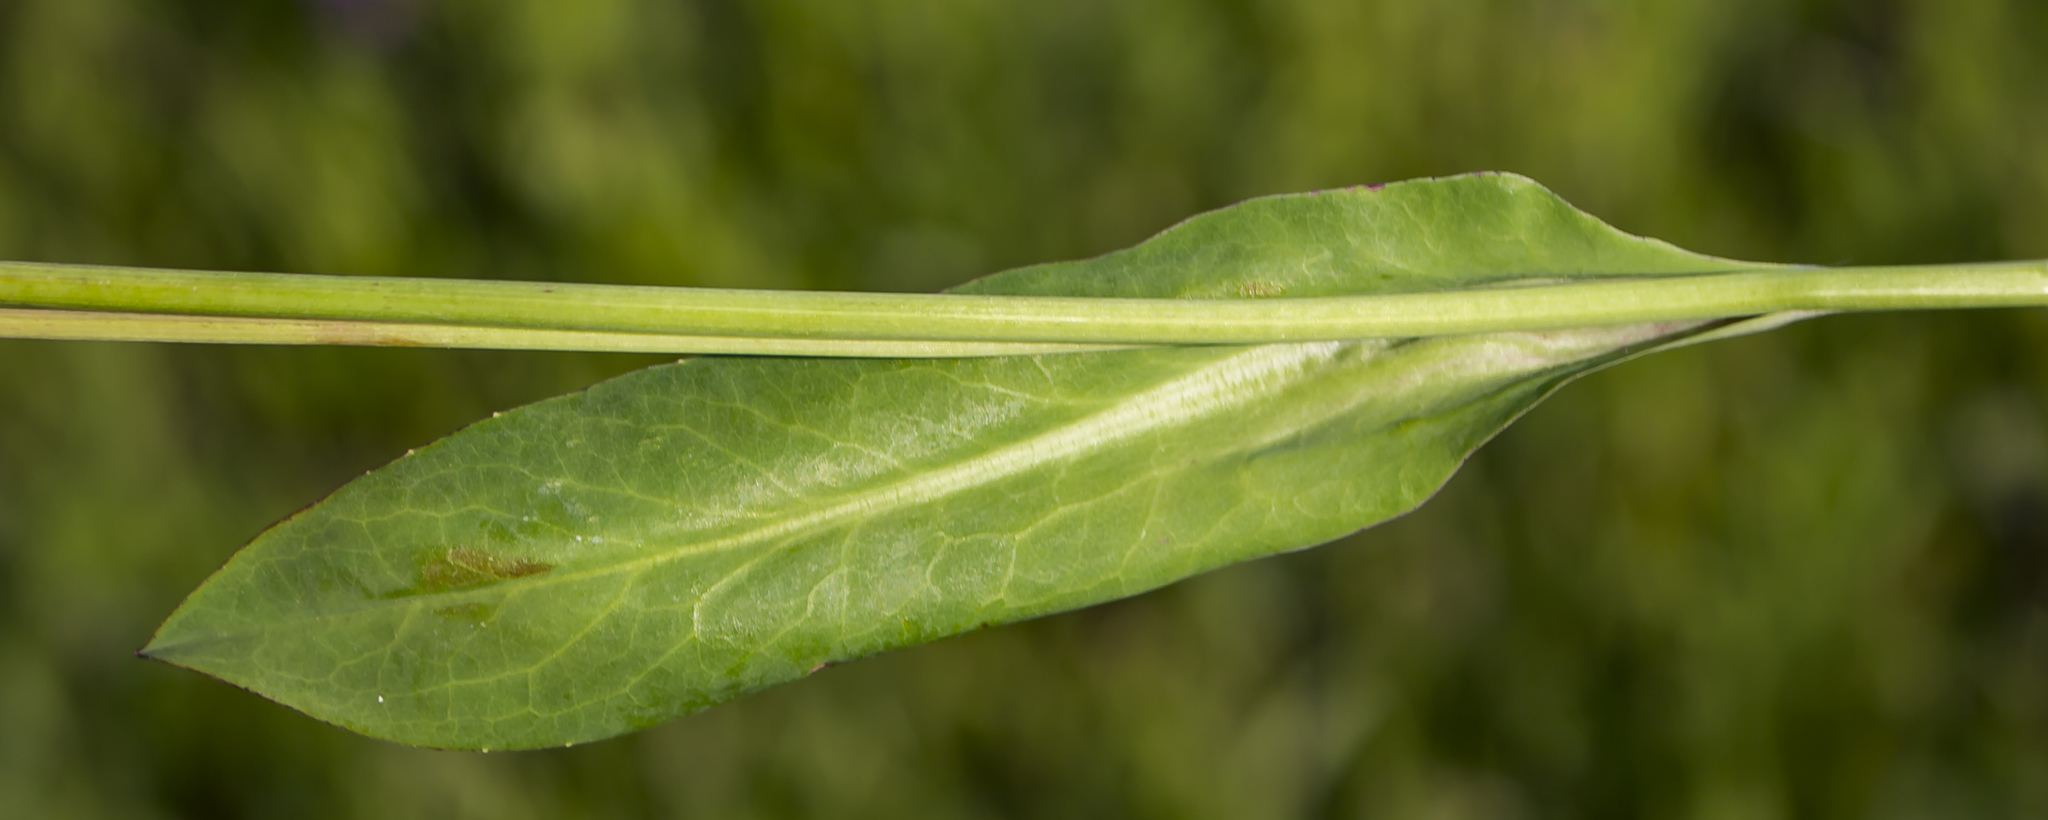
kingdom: Plantae
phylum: Tracheophyta
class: Magnoliopsida
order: Asterales
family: Asteraceae
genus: Krigia
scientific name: Krigia biflora
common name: Orange dwarf-dandelion
